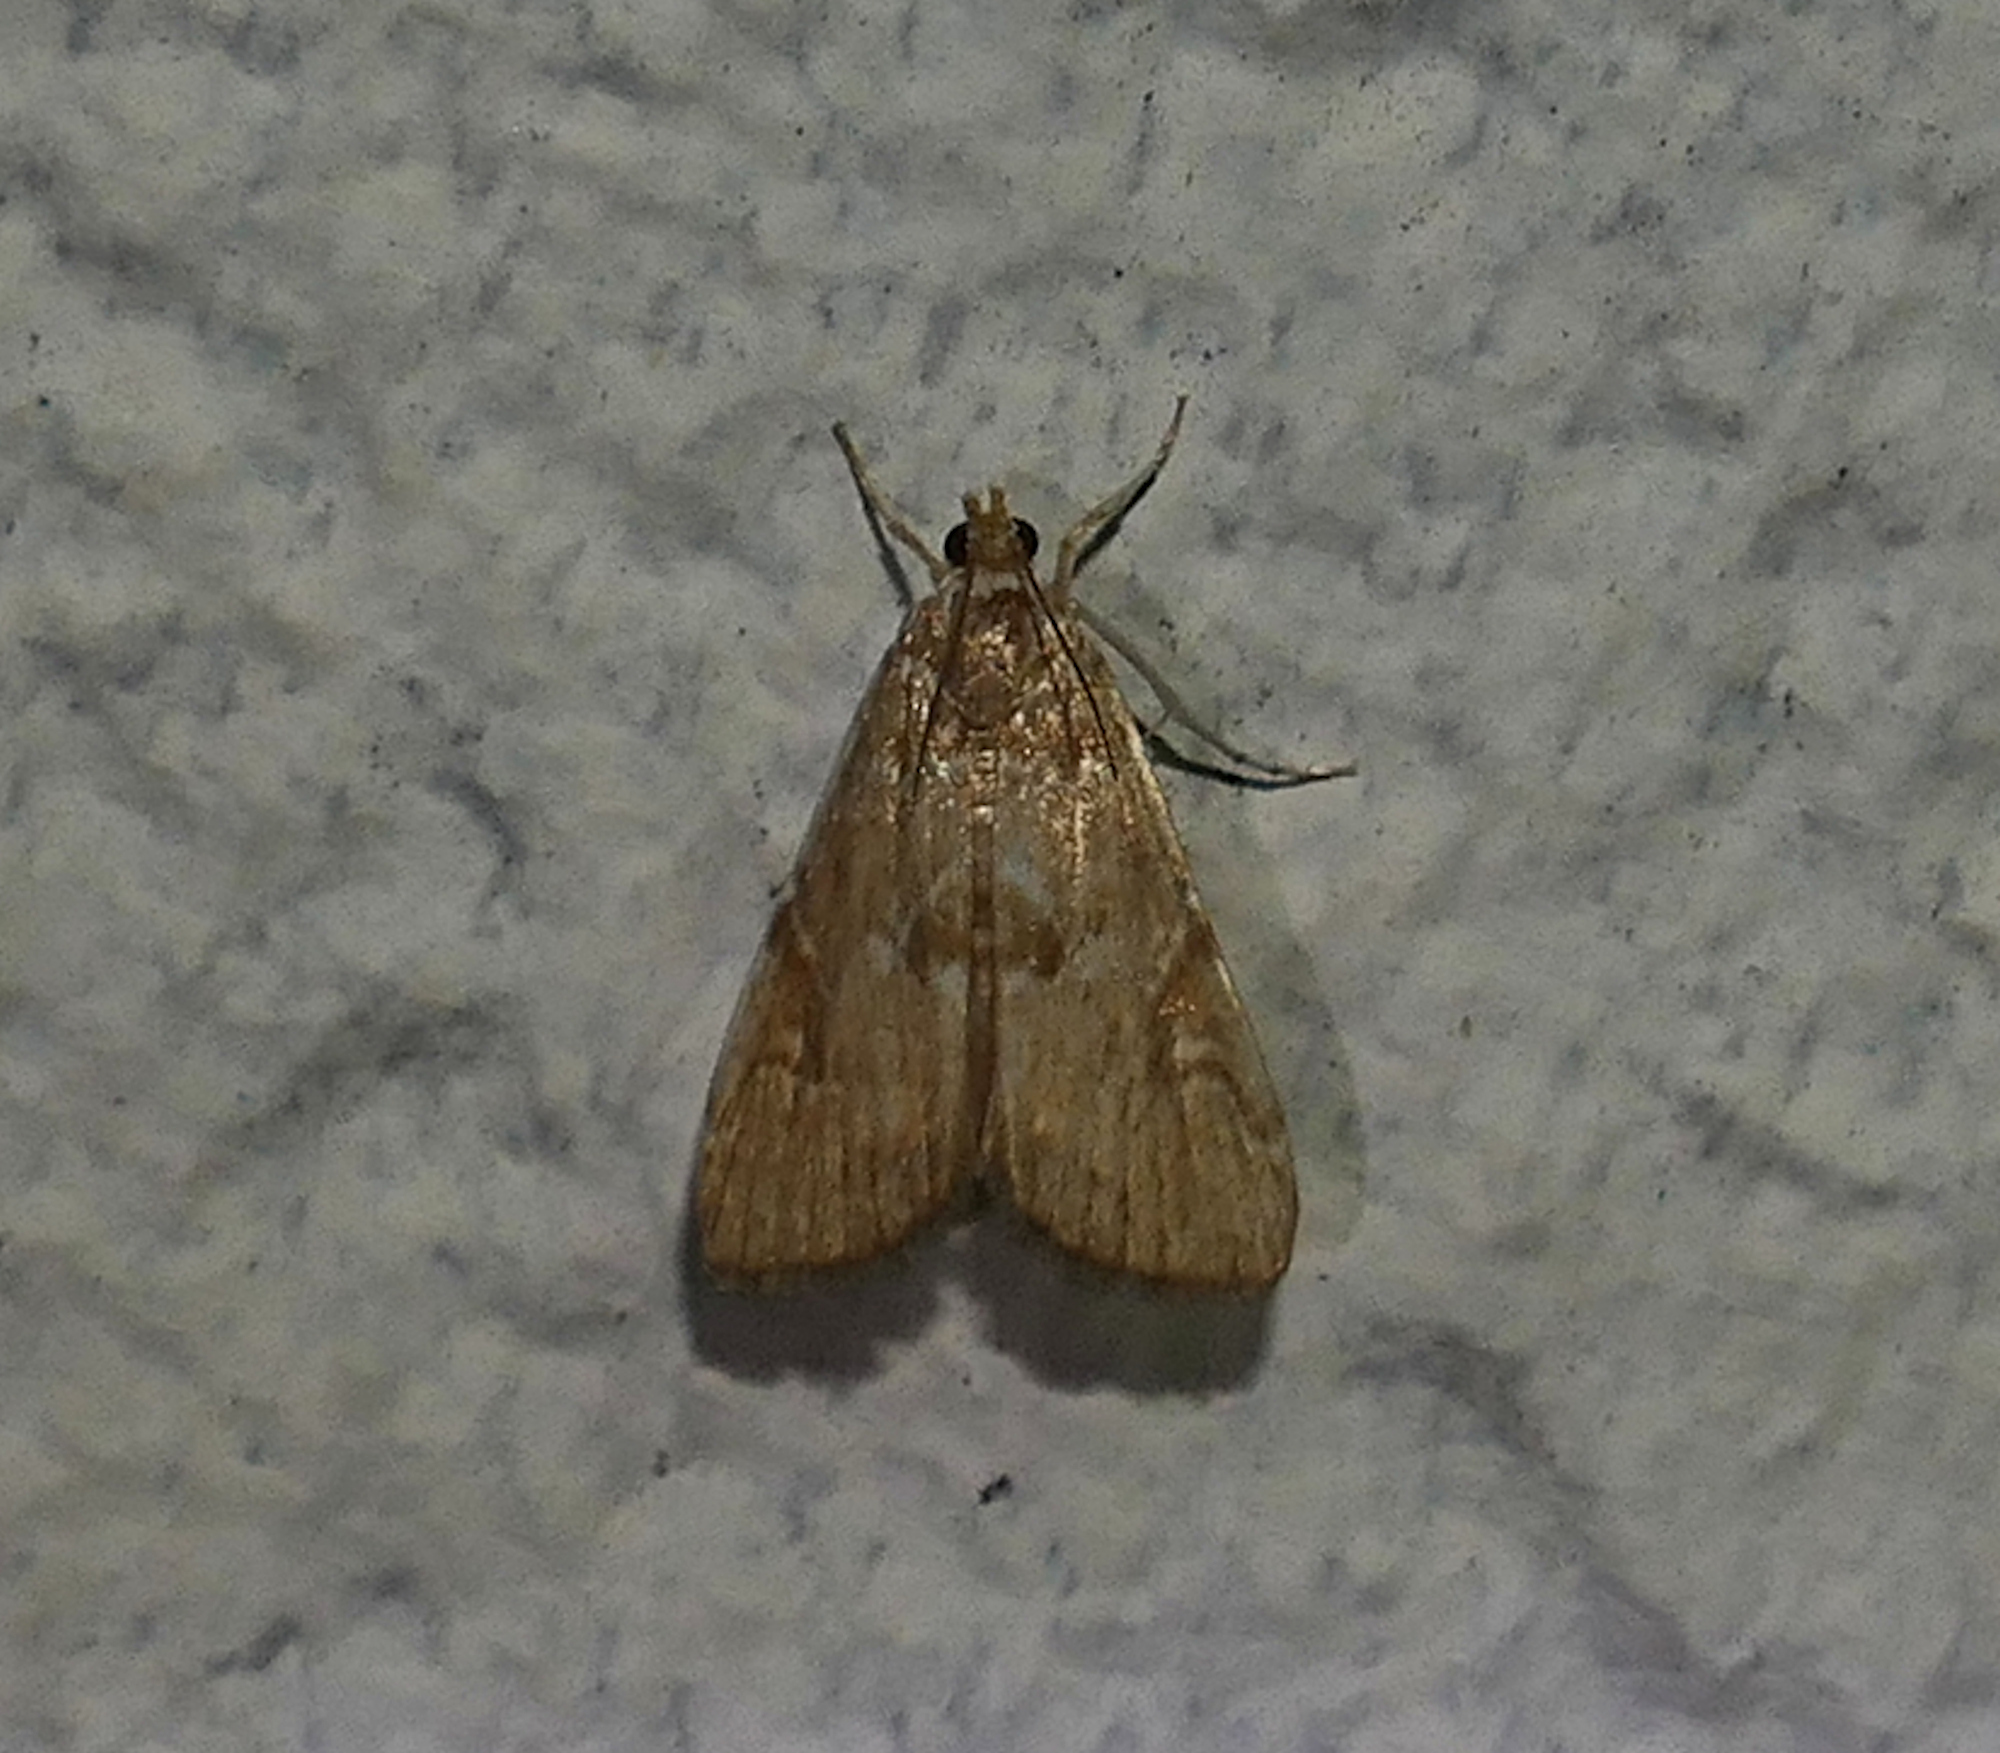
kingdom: Animalia
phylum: Arthropoda
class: Insecta
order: Lepidoptera
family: Crambidae
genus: Elophila
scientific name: Elophila gyralis
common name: Waterlily borer moth
